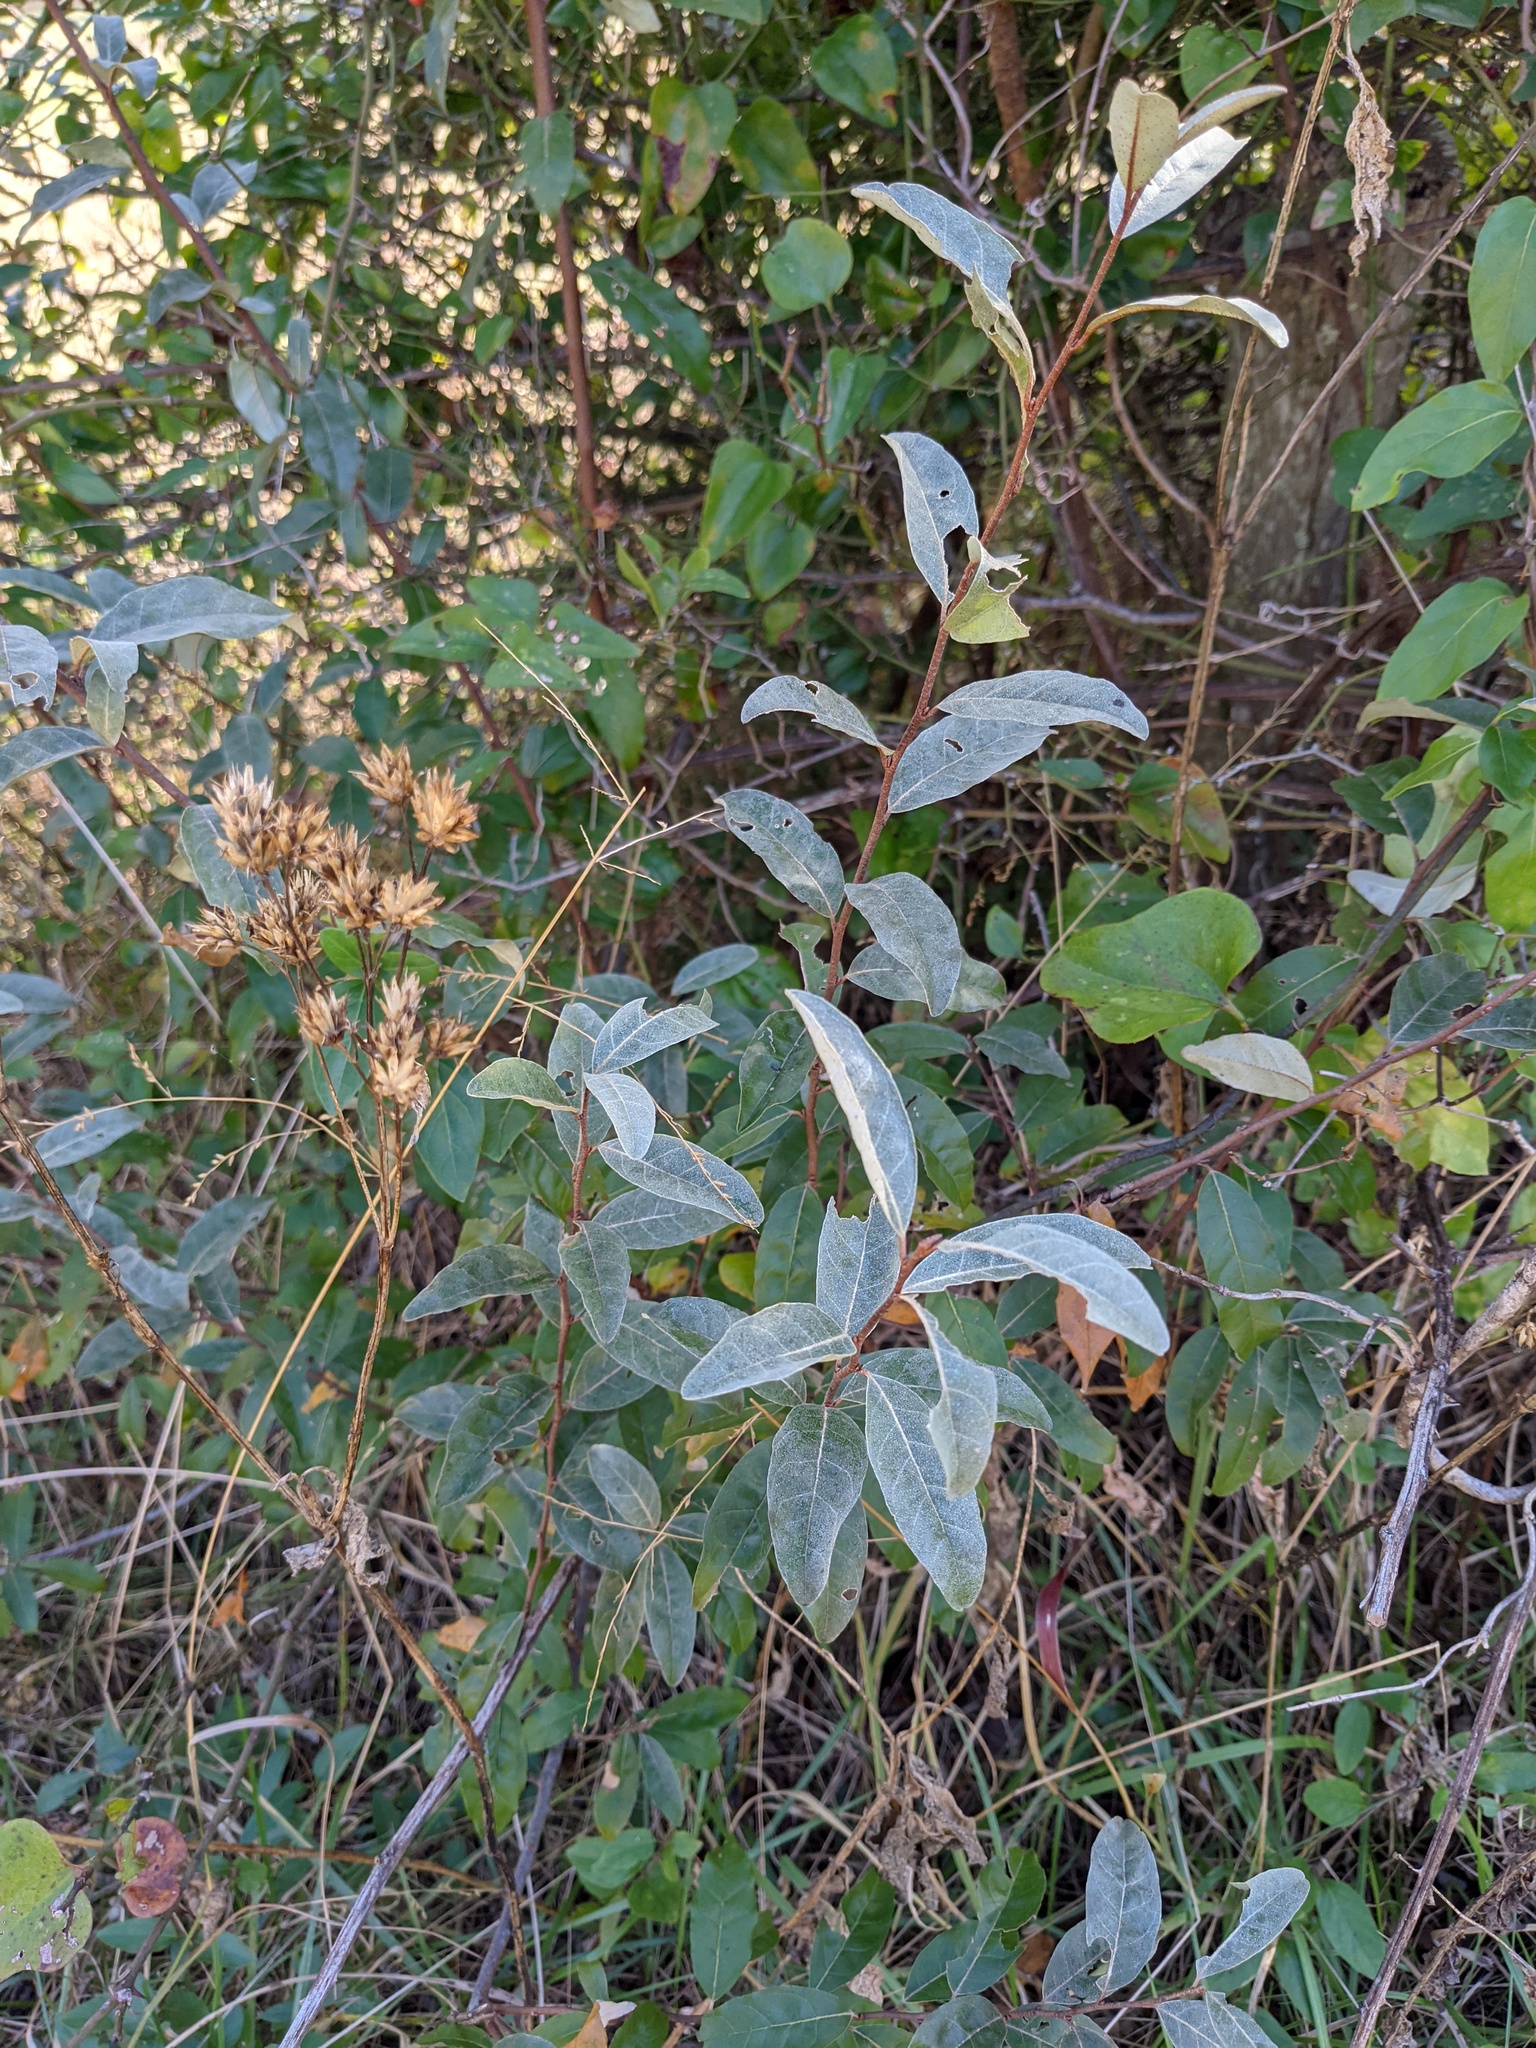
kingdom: Plantae
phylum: Tracheophyta
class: Magnoliopsida
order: Rosales
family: Elaeagnaceae
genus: Elaeagnus
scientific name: Elaeagnus umbellata
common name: Autumn olive
